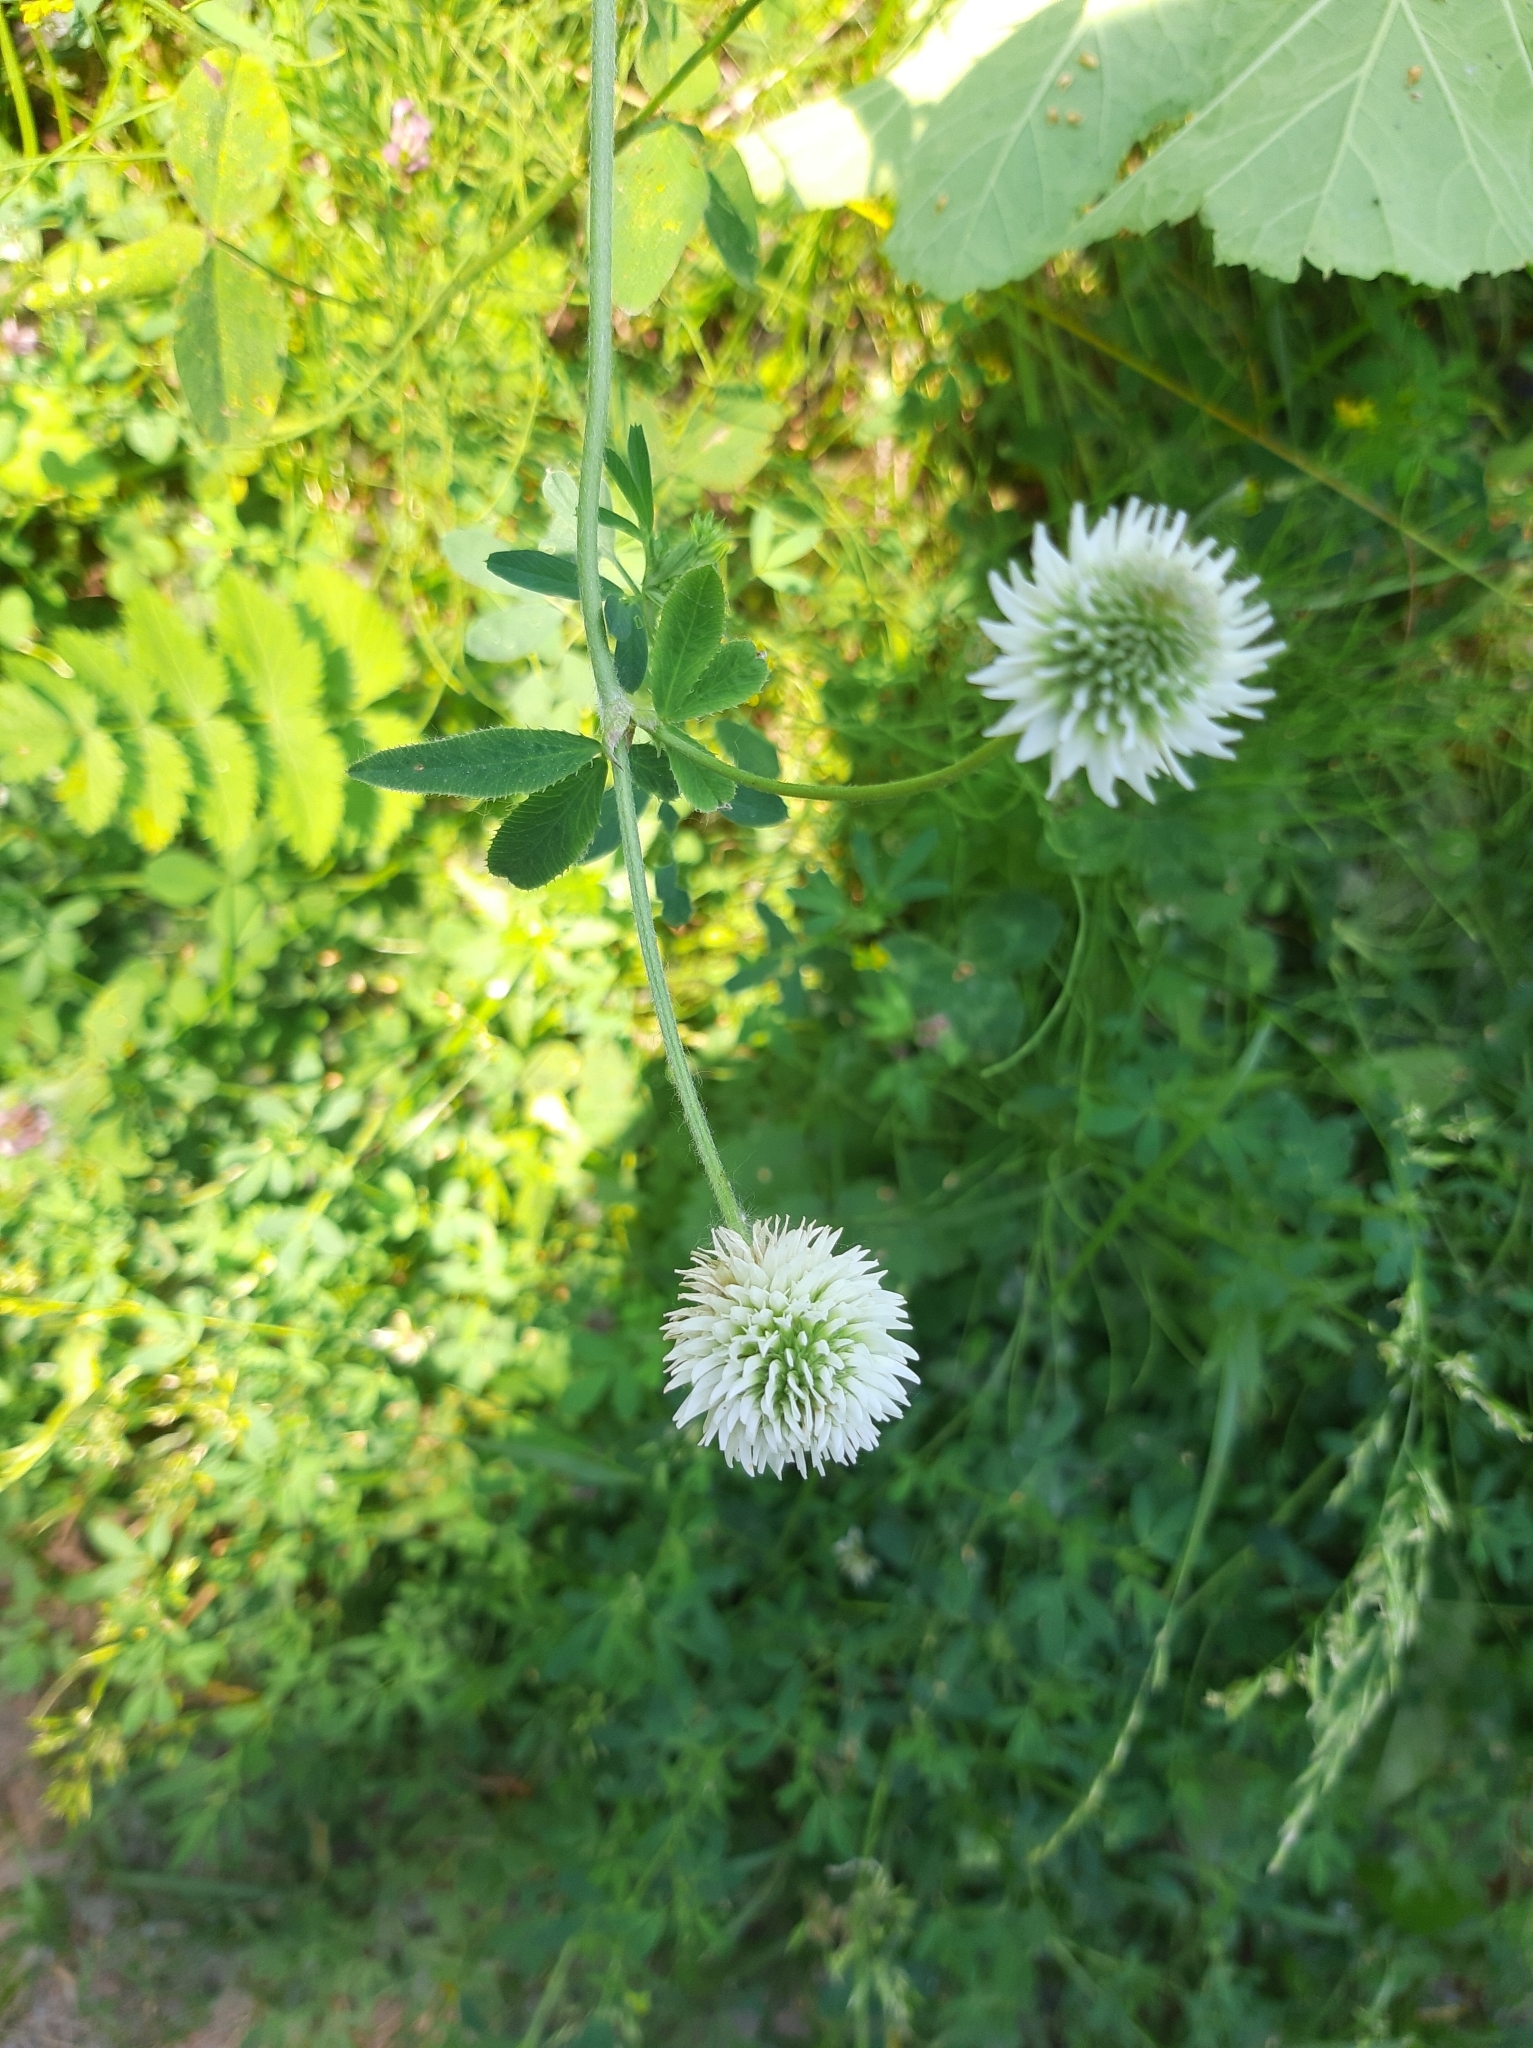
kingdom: Plantae
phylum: Tracheophyta
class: Magnoliopsida
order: Fabales
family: Fabaceae
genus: Trifolium
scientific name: Trifolium montanum
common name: Mountain clover
